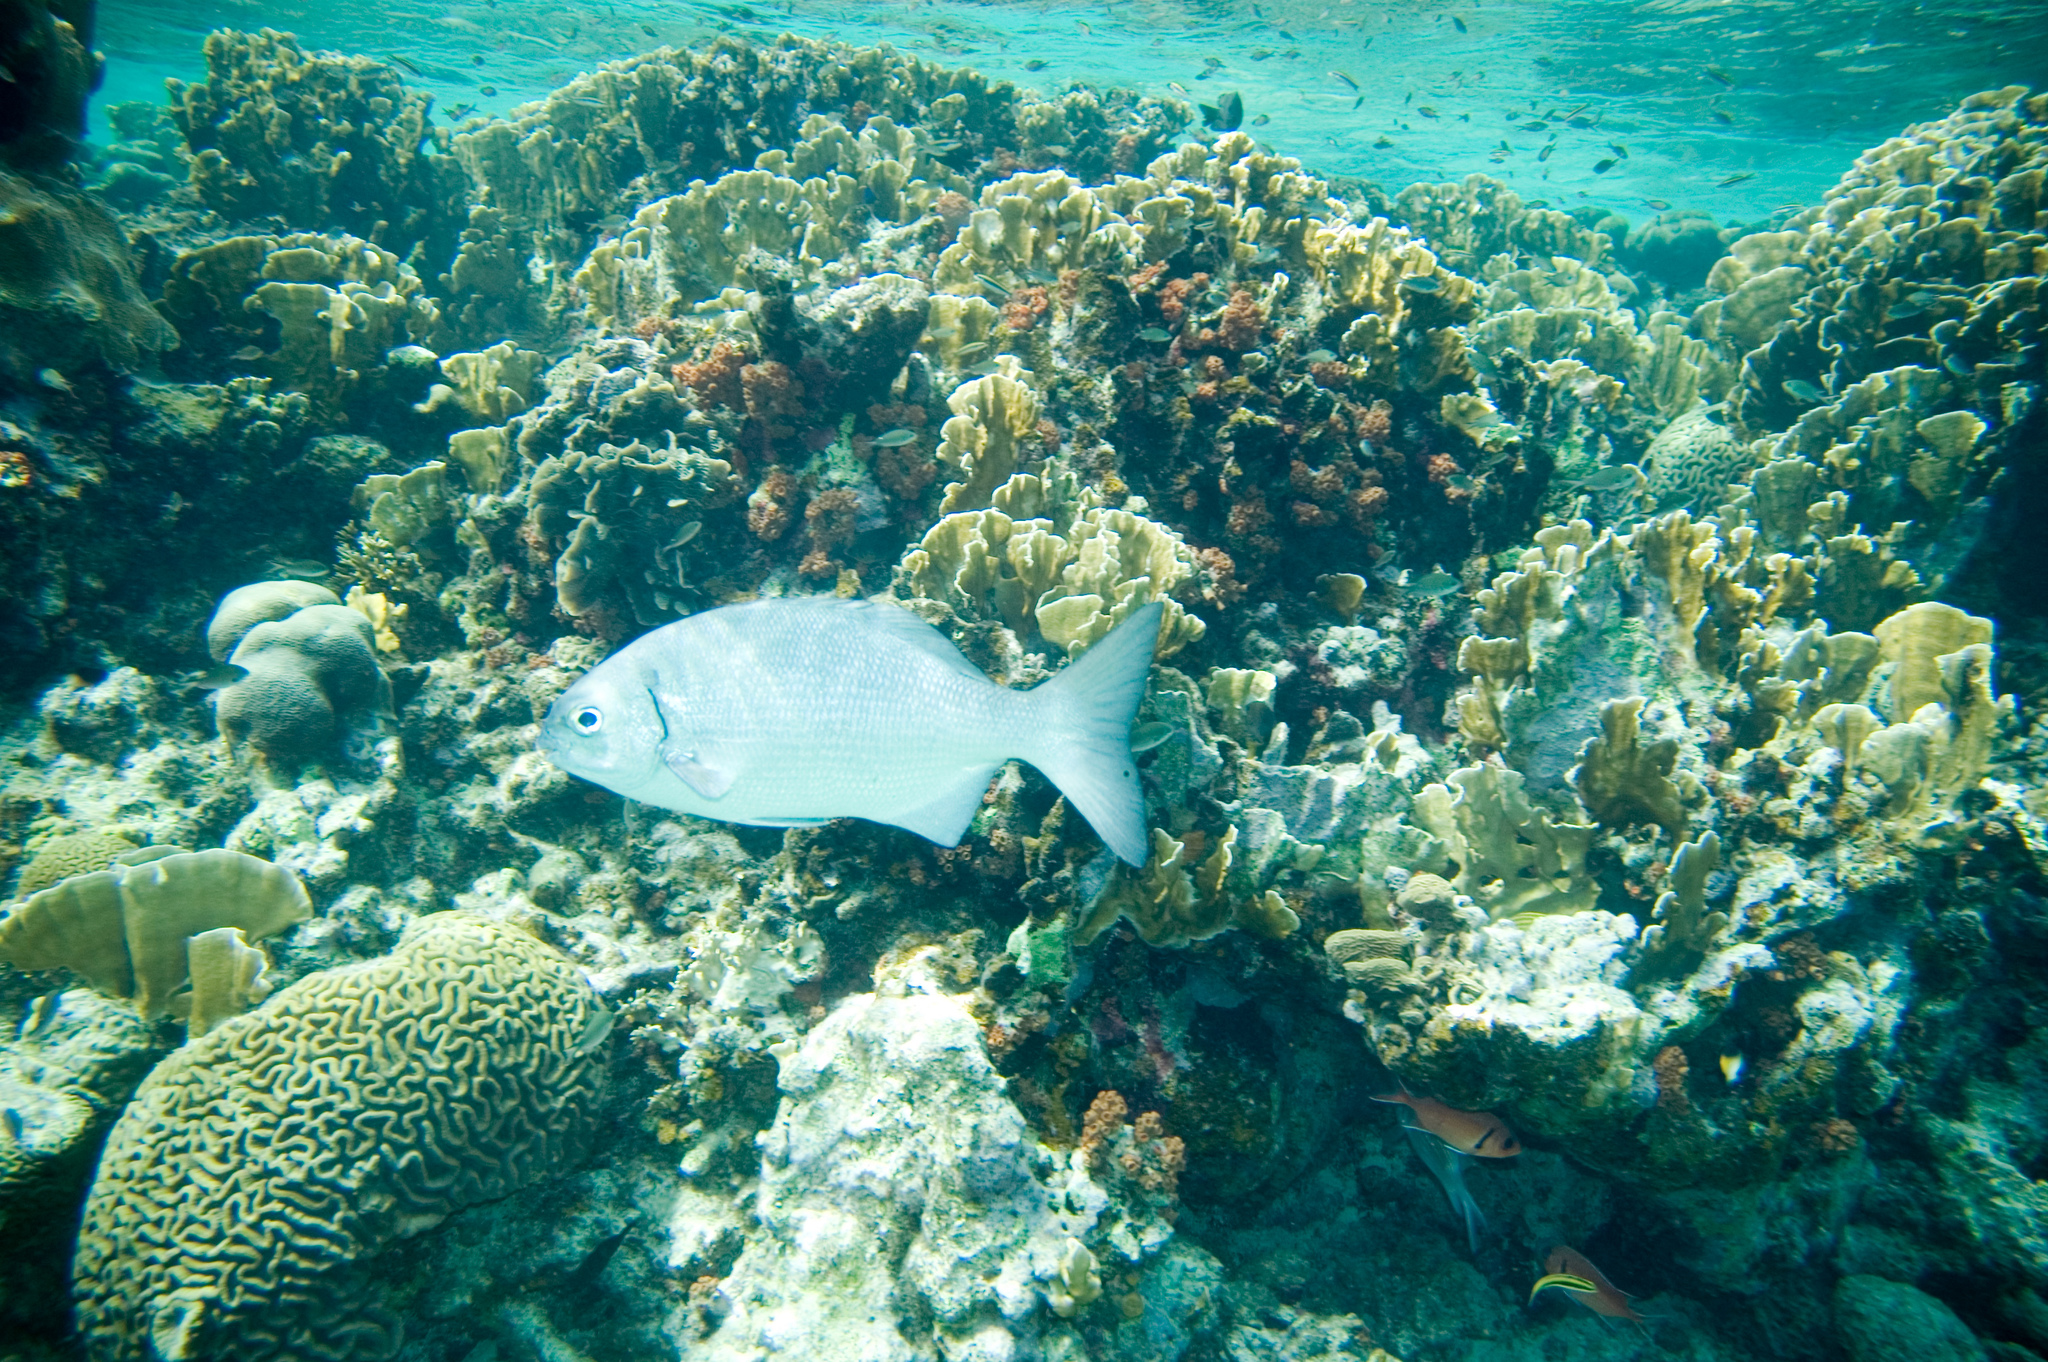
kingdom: Animalia
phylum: Chordata
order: Perciformes
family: Kyphosidae
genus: Kyphosus
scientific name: Kyphosus sectatrix
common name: Bermuda chub
